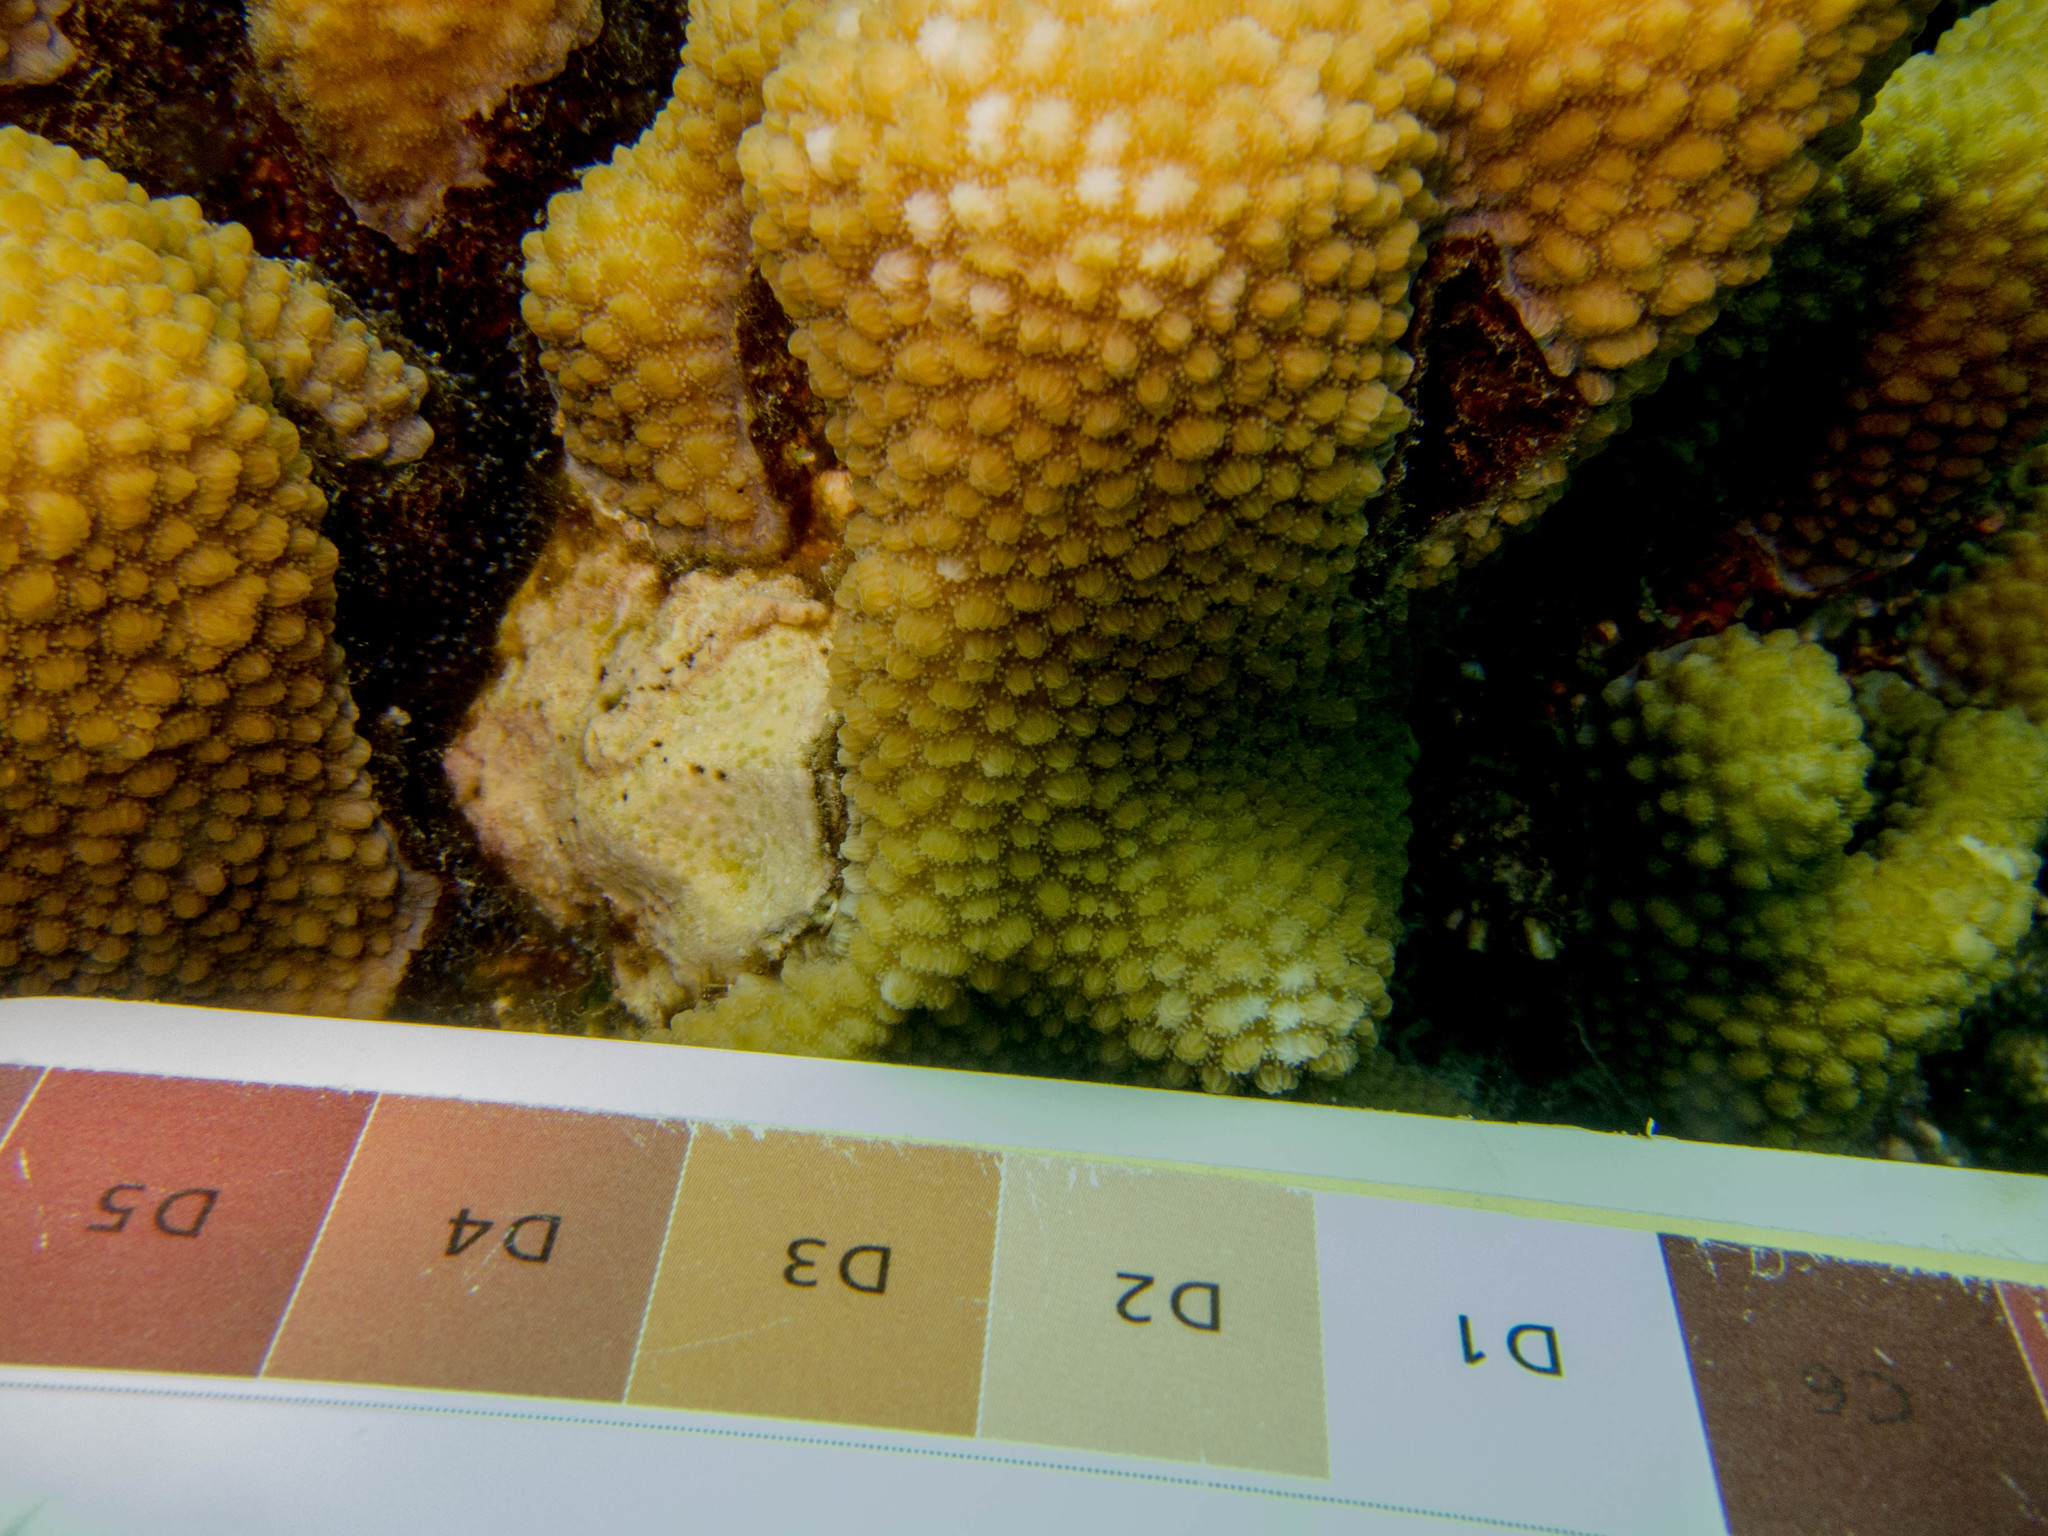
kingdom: Animalia
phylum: Cnidaria
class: Anthozoa
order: Scleractinia
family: Merulinidae
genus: Hydnophora
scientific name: Hydnophora microconos
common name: Spine coral
